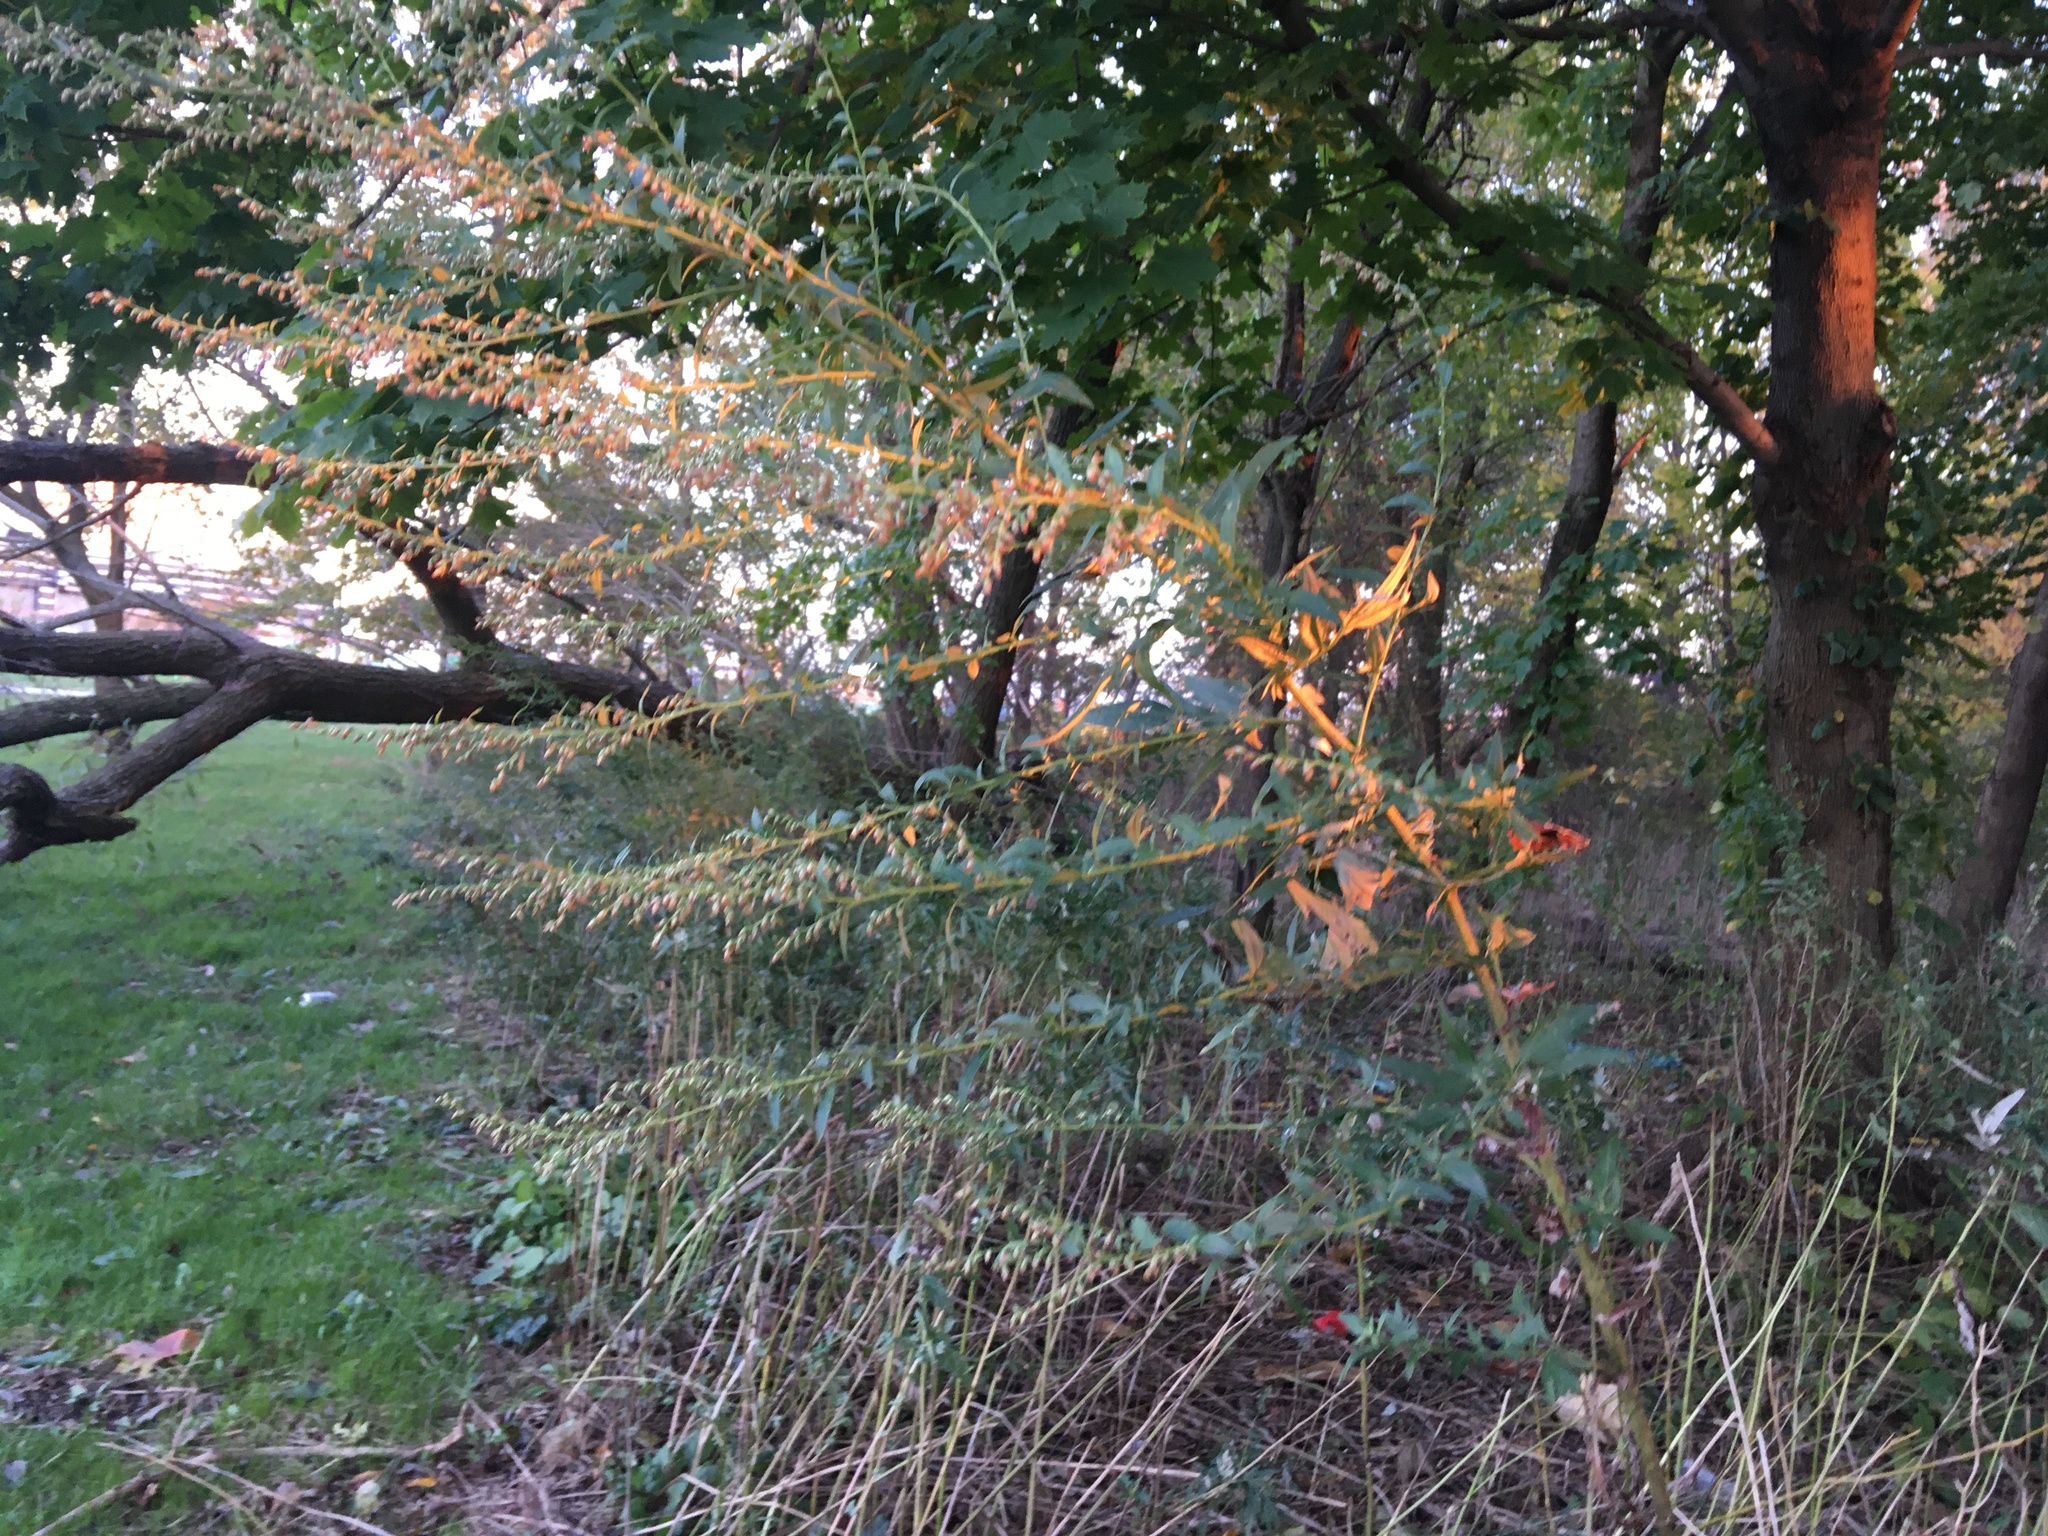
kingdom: Plantae
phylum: Tracheophyta
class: Magnoliopsida
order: Asterales
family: Asteraceae
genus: Artemisia
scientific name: Artemisia vulgaris
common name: Mugwort
